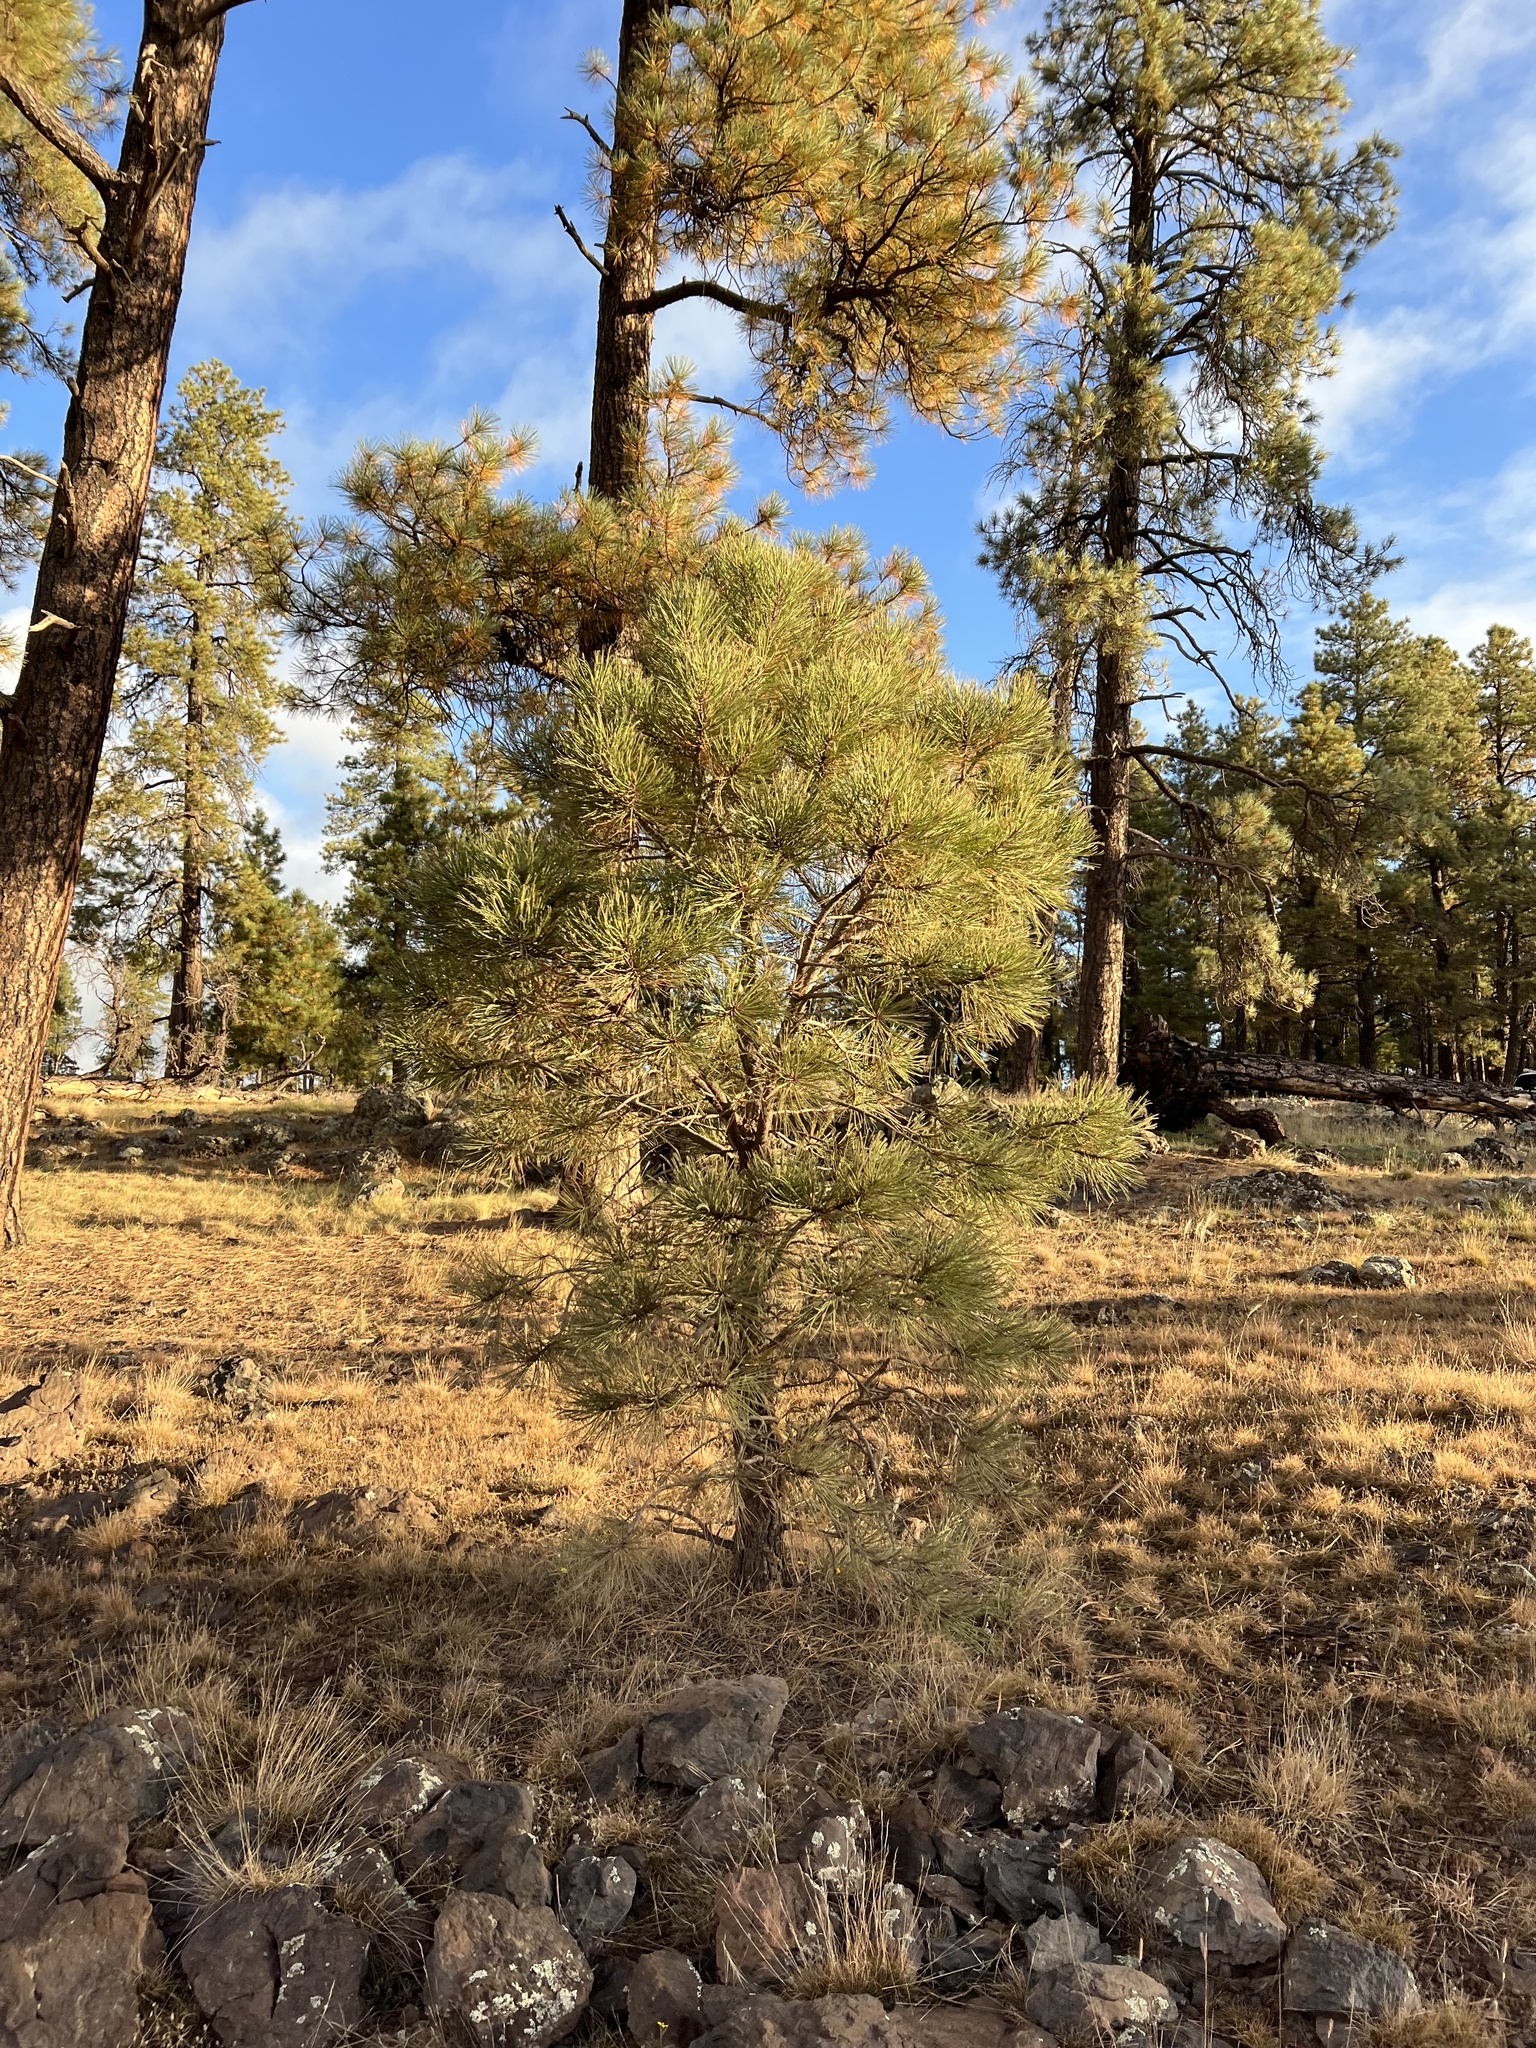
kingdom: Plantae
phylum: Tracheophyta
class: Pinopsida
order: Pinales
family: Pinaceae
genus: Pinus
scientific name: Pinus ponderosa
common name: Western yellow-pine
